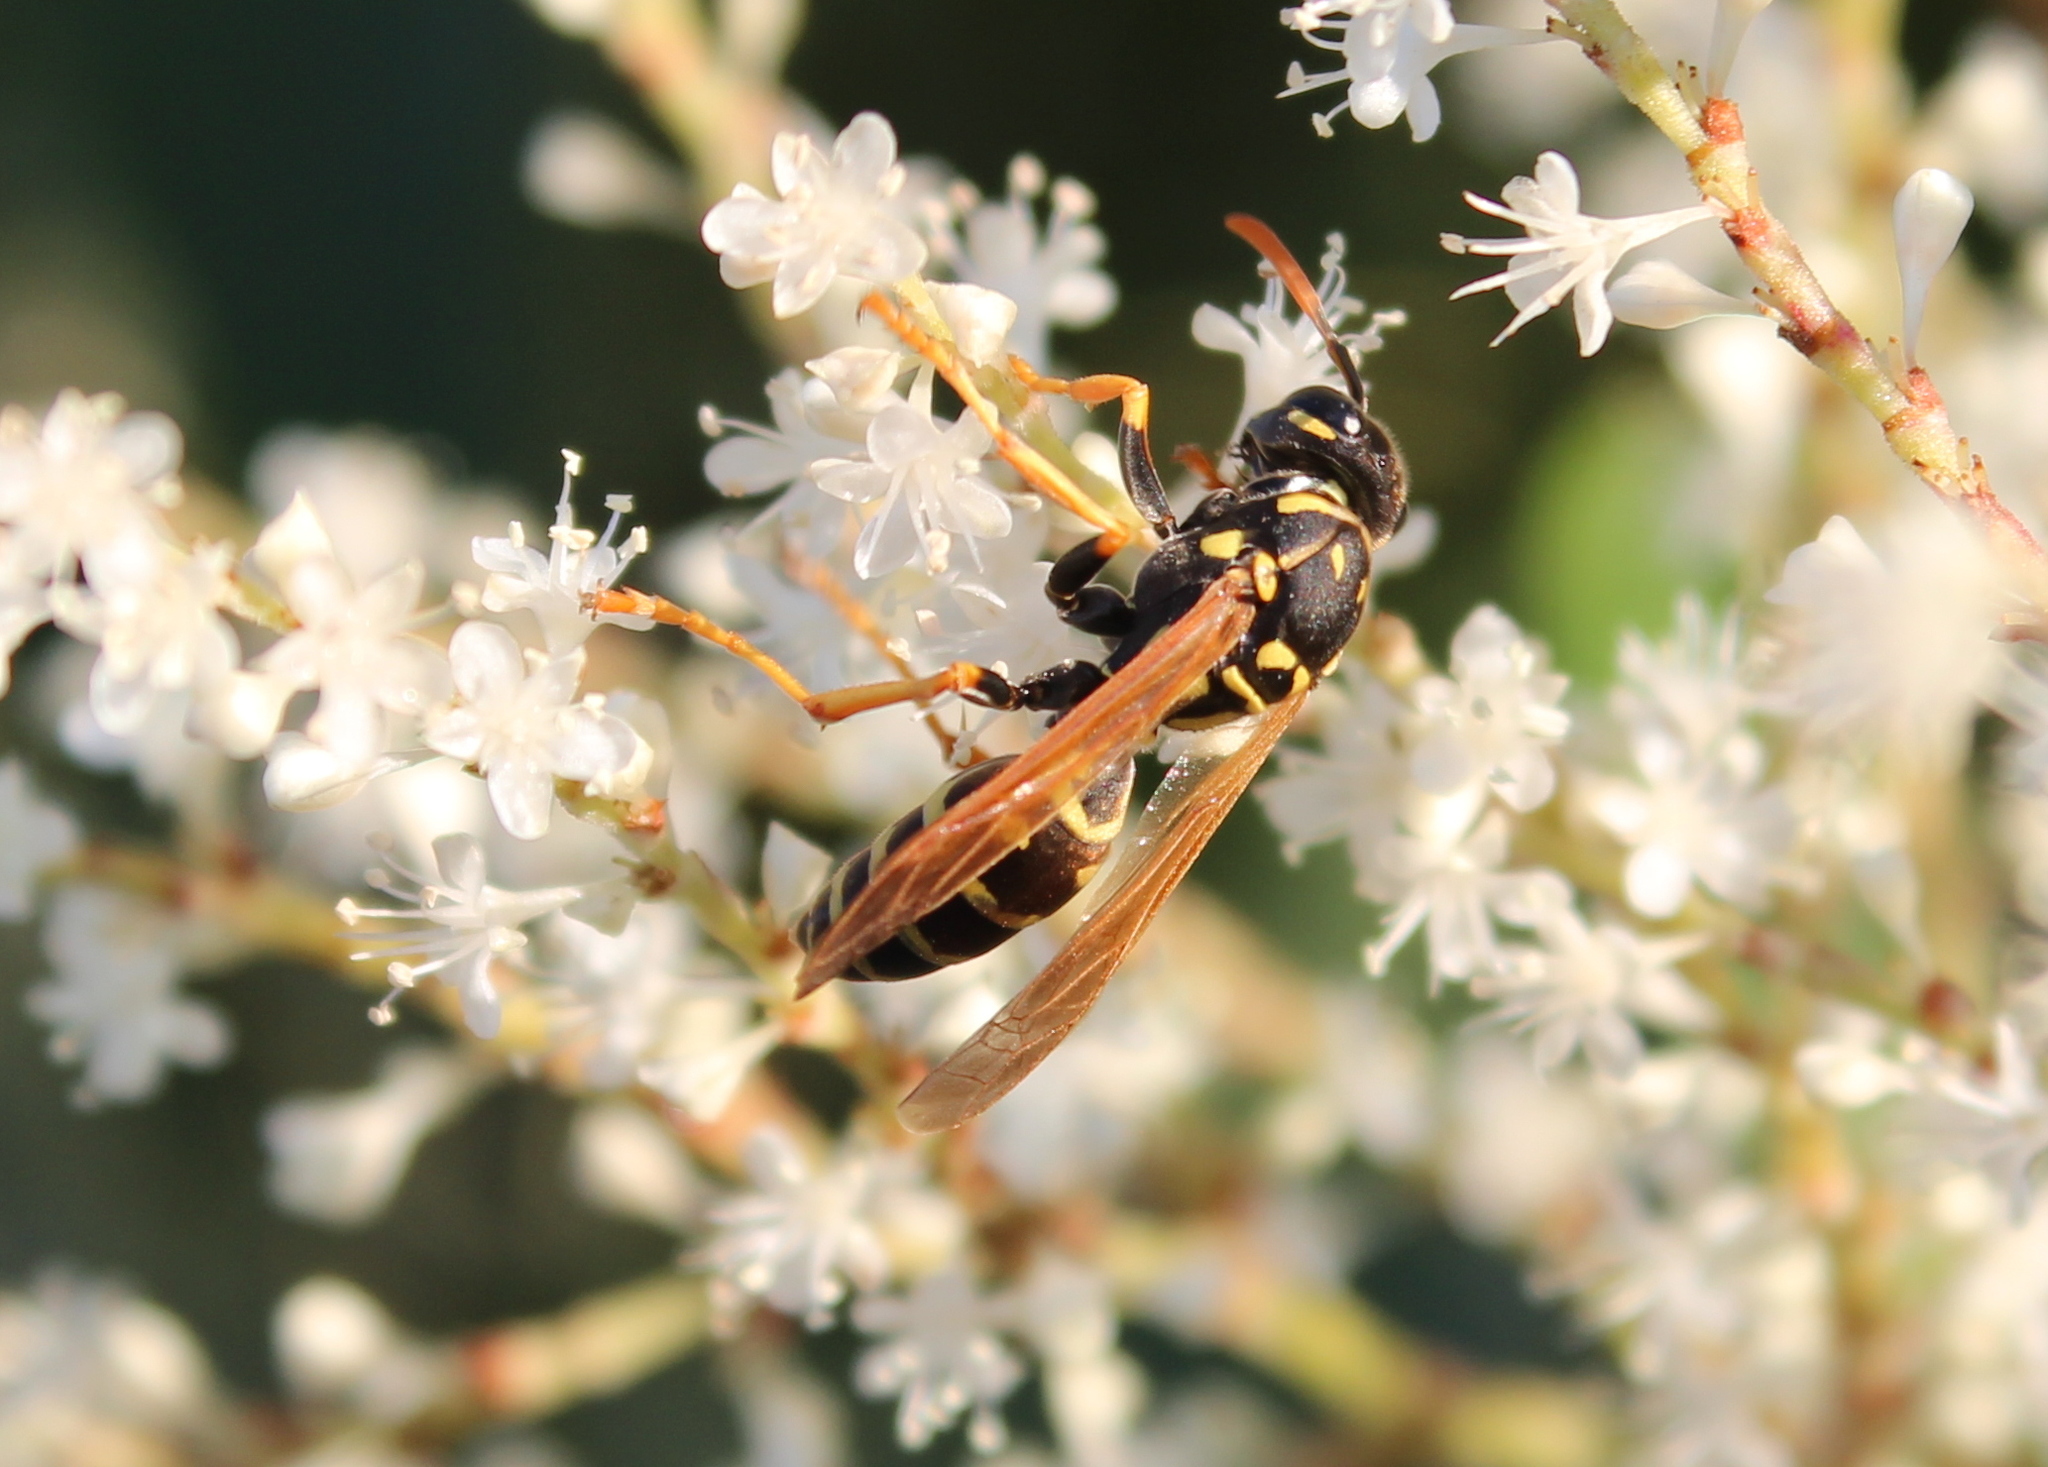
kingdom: Animalia
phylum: Arthropoda
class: Insecta
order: Hymenoptera
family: Eumenidae
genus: Polistes
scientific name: Polistes dominula
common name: Paper wasp
